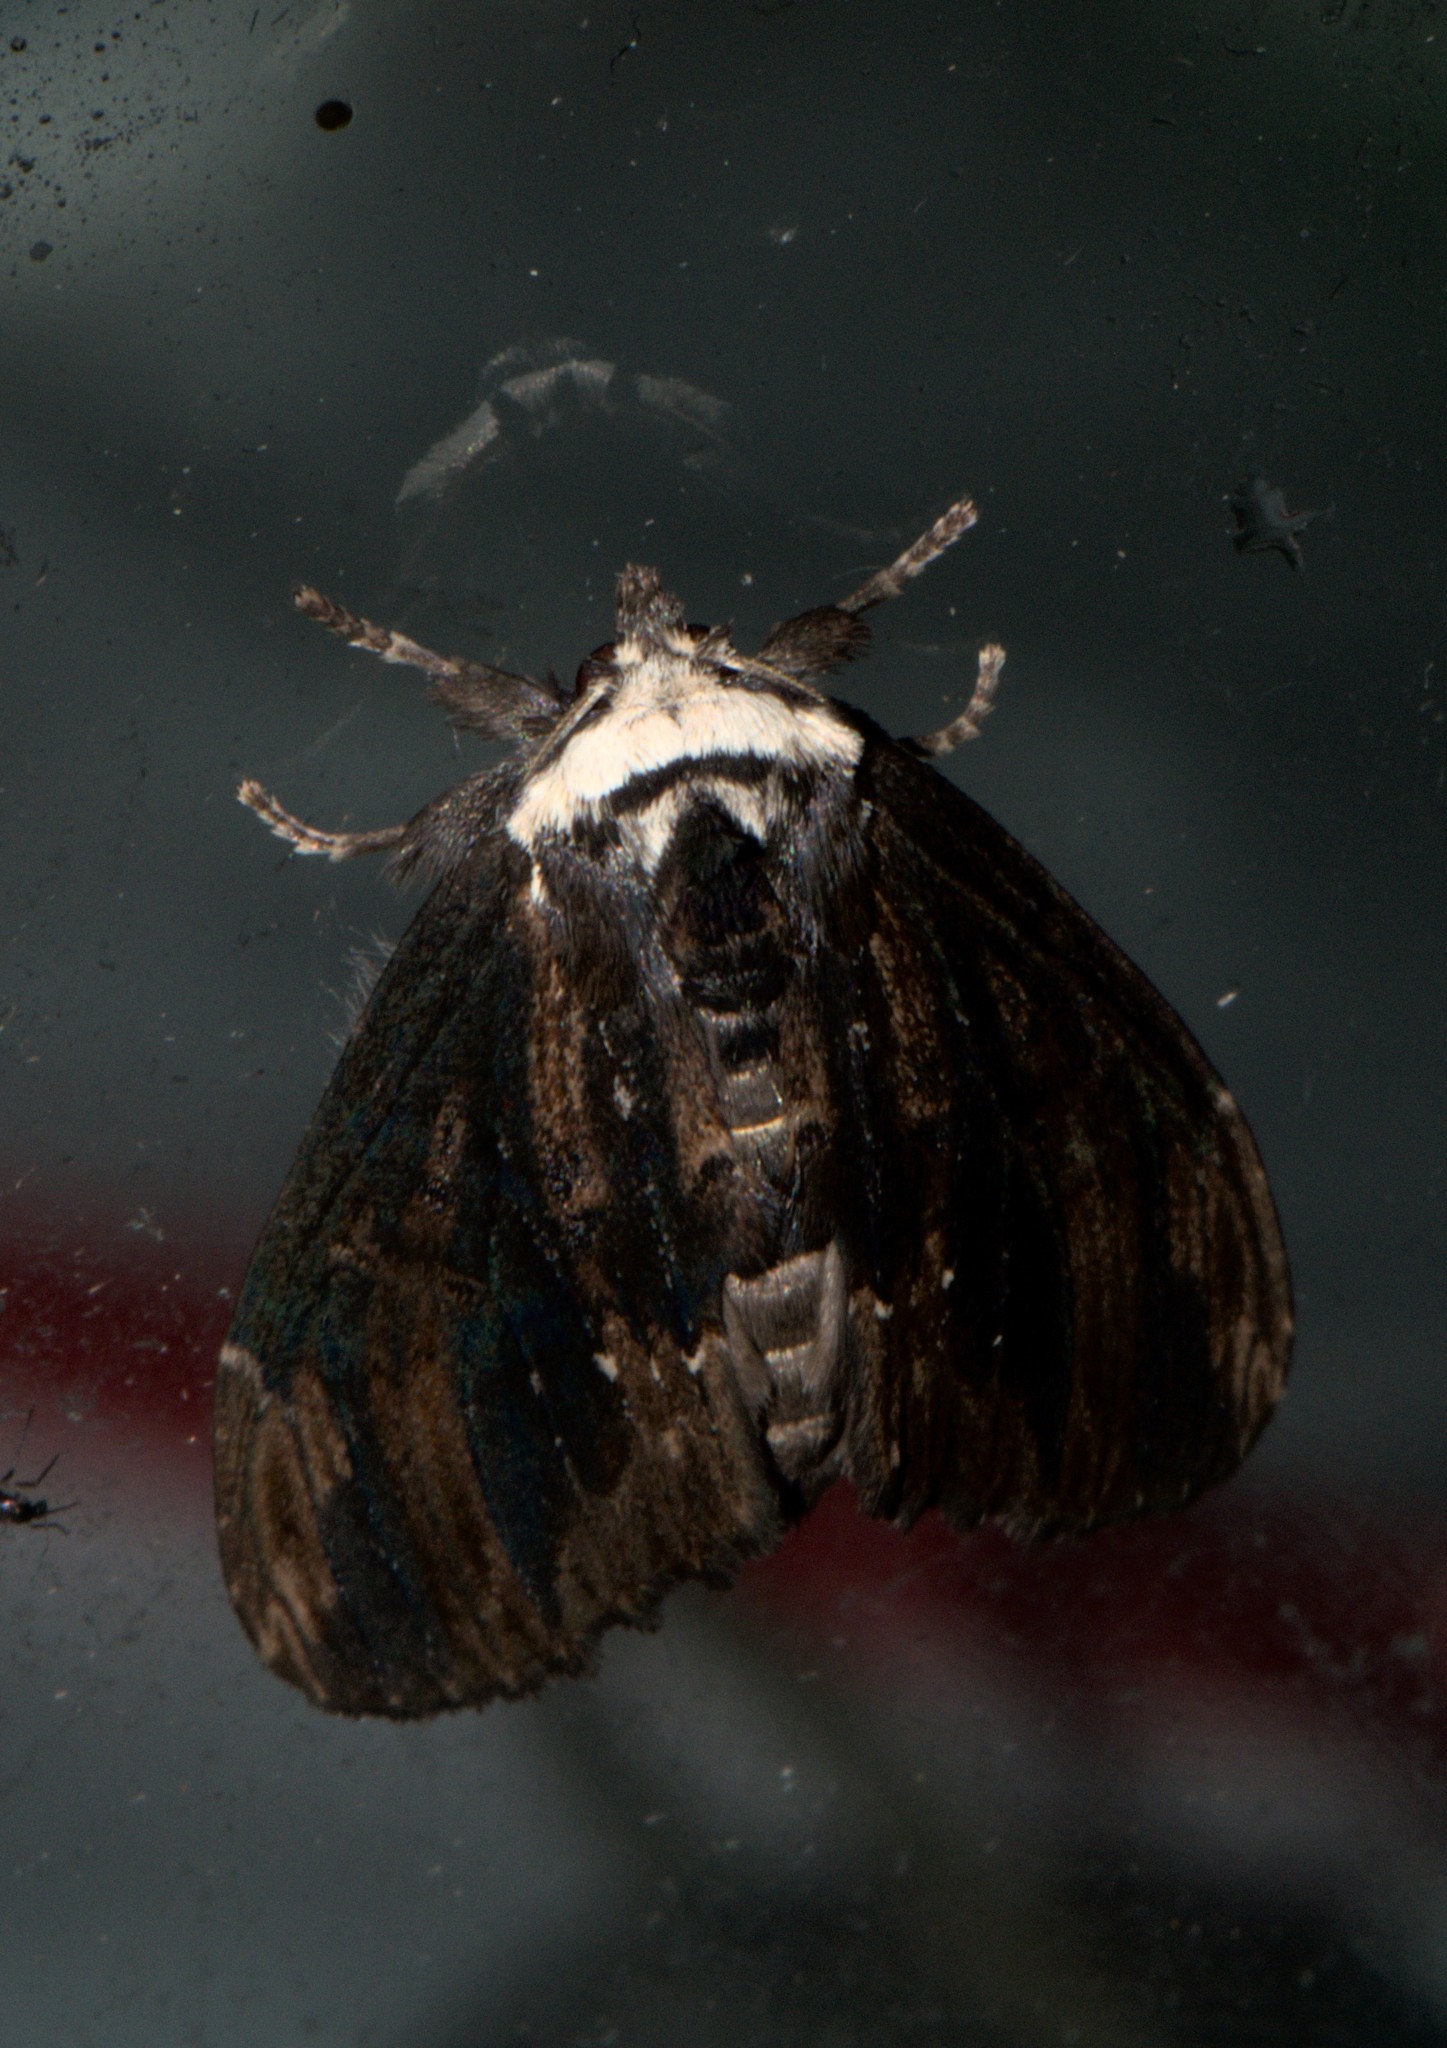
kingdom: Animalia
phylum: Arthropoda
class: Insecta
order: Lepidoptera
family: Notodontidae
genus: Allodonta
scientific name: Allodonta collaris
